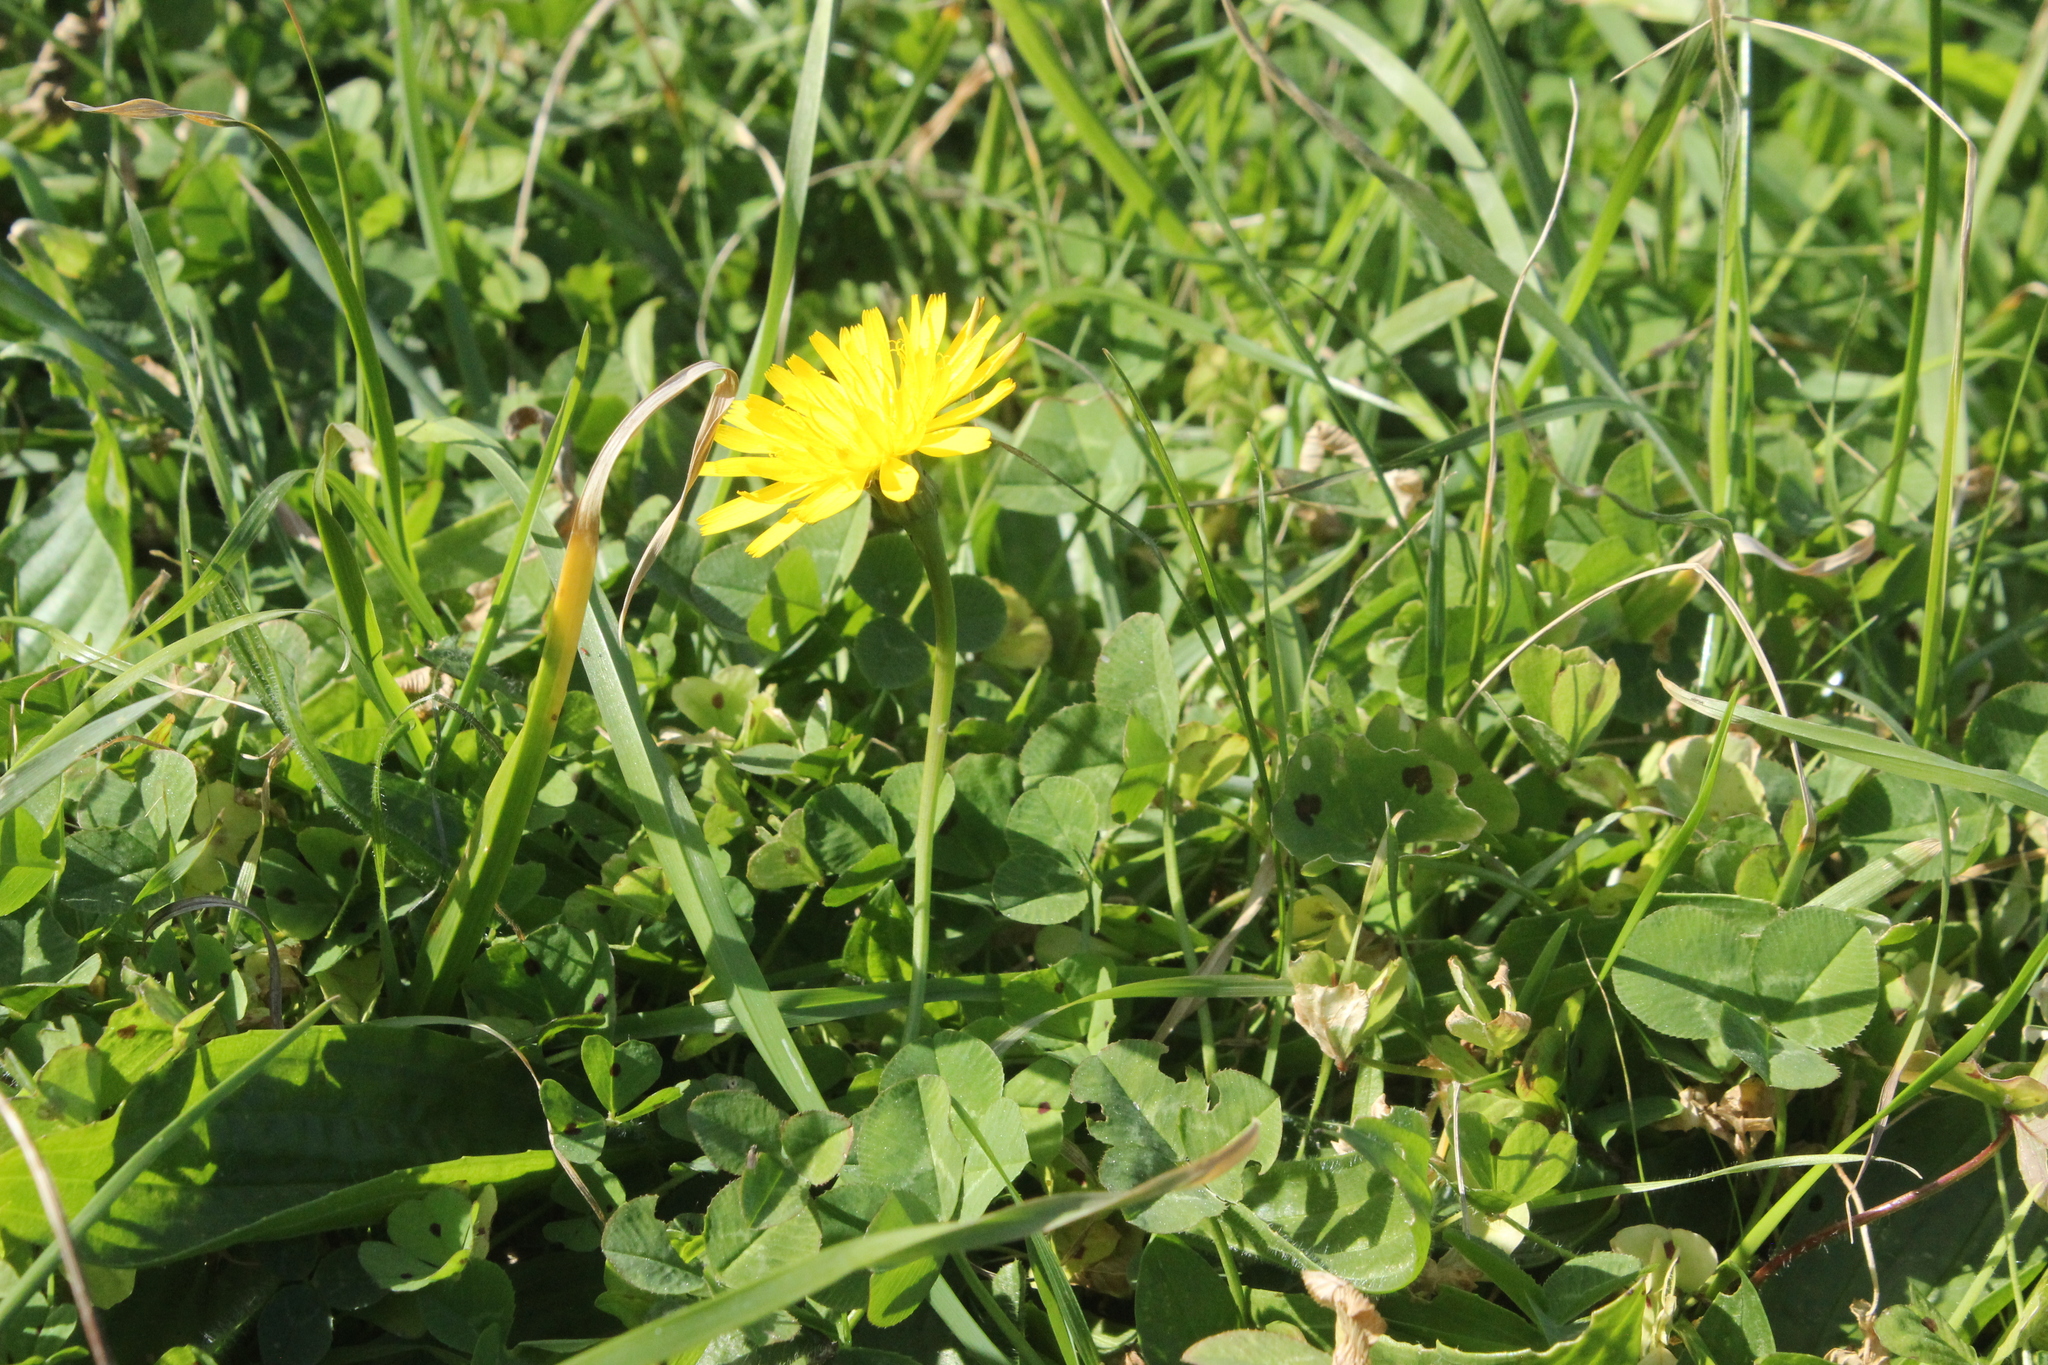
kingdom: Plantae
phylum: Tracheophyta
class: Magnoliopsida
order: Asterales
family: Asteraceae
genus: Taraxacum
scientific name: Taraxacum officinale
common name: Common dandelion
